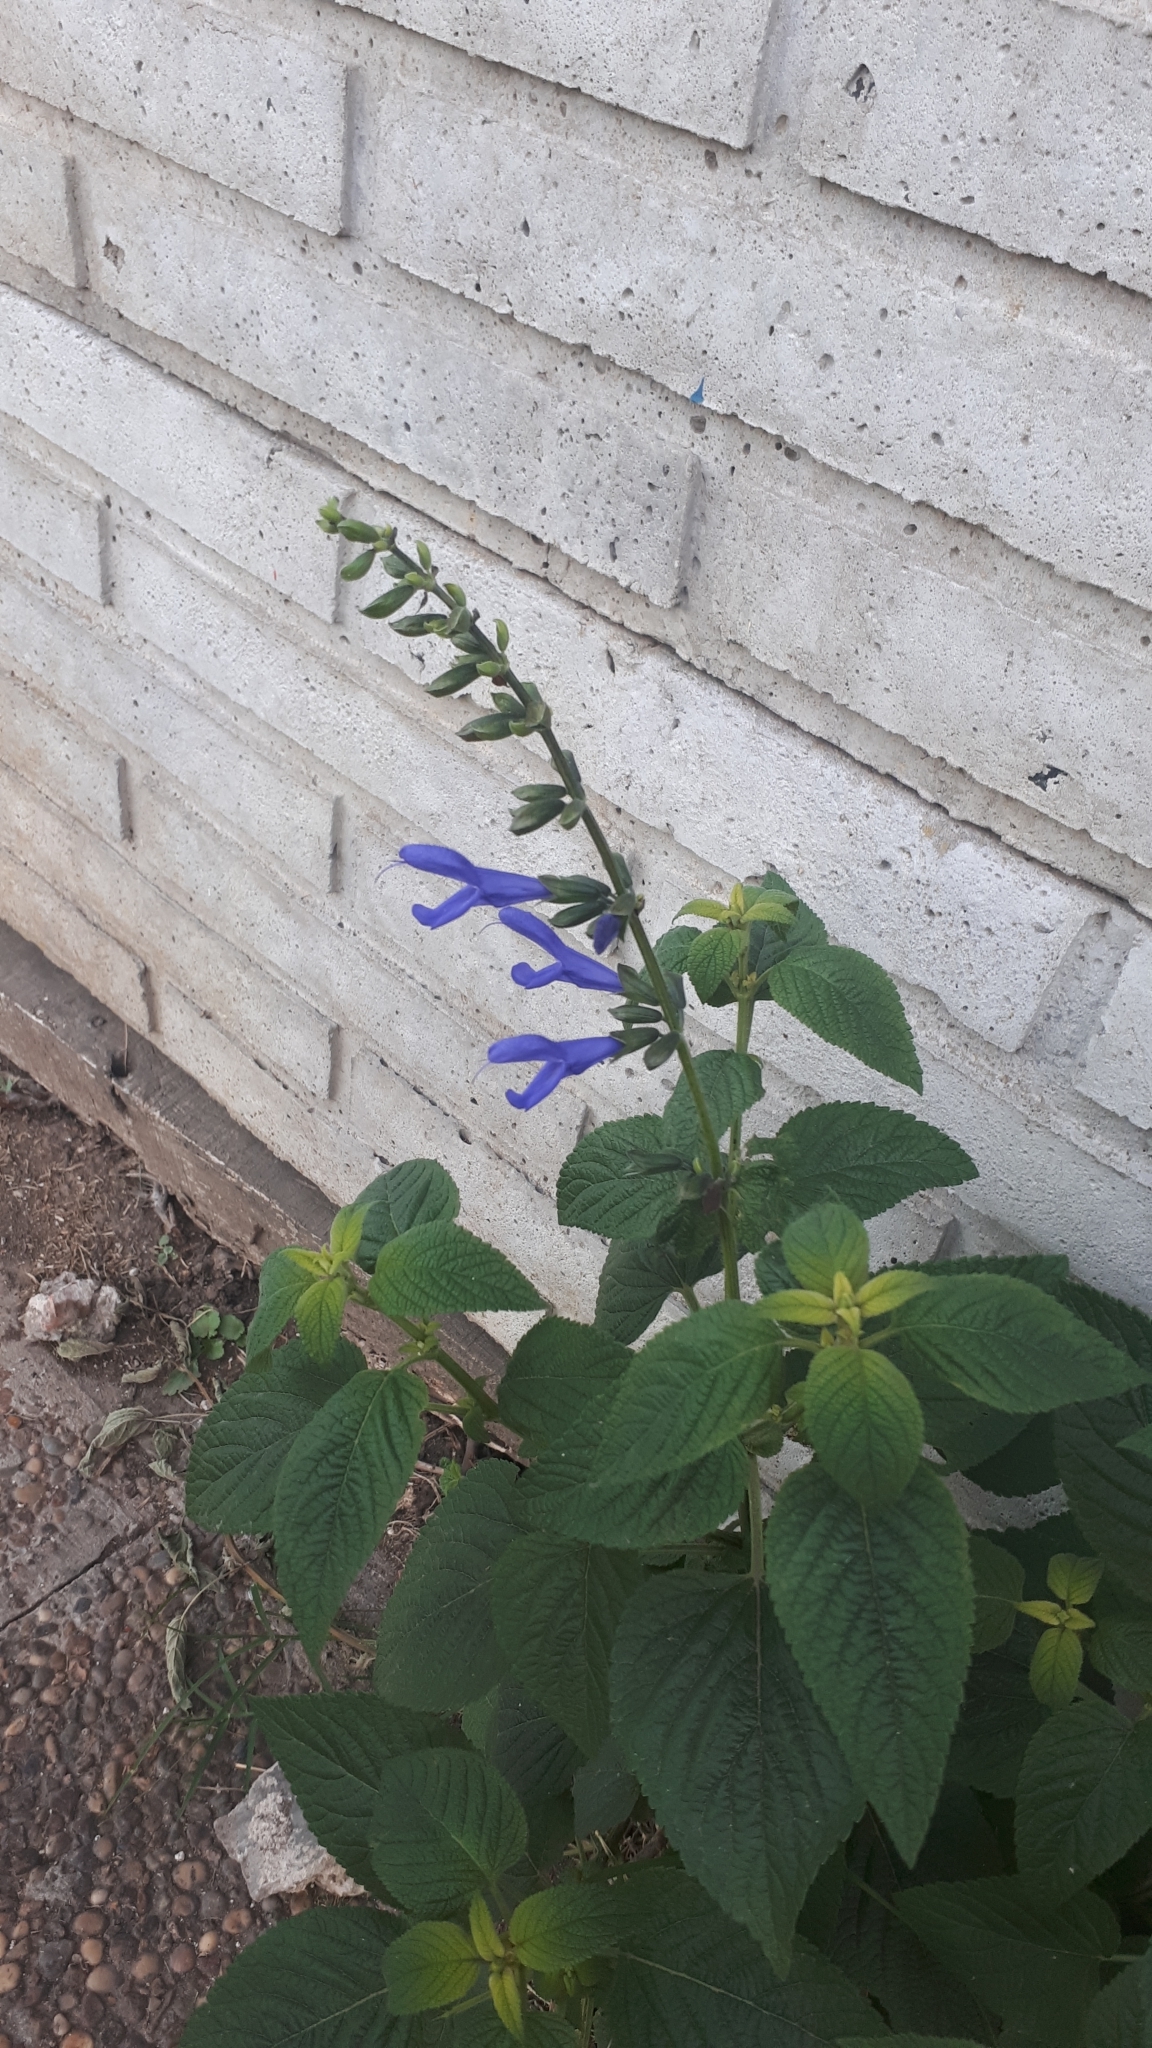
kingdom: Plantae
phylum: Tracheophyta
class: Magnoliopsida
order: Lamiales
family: Lamiaceae
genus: Salvia
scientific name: Salvia guaranitica
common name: Anise-scented sage
